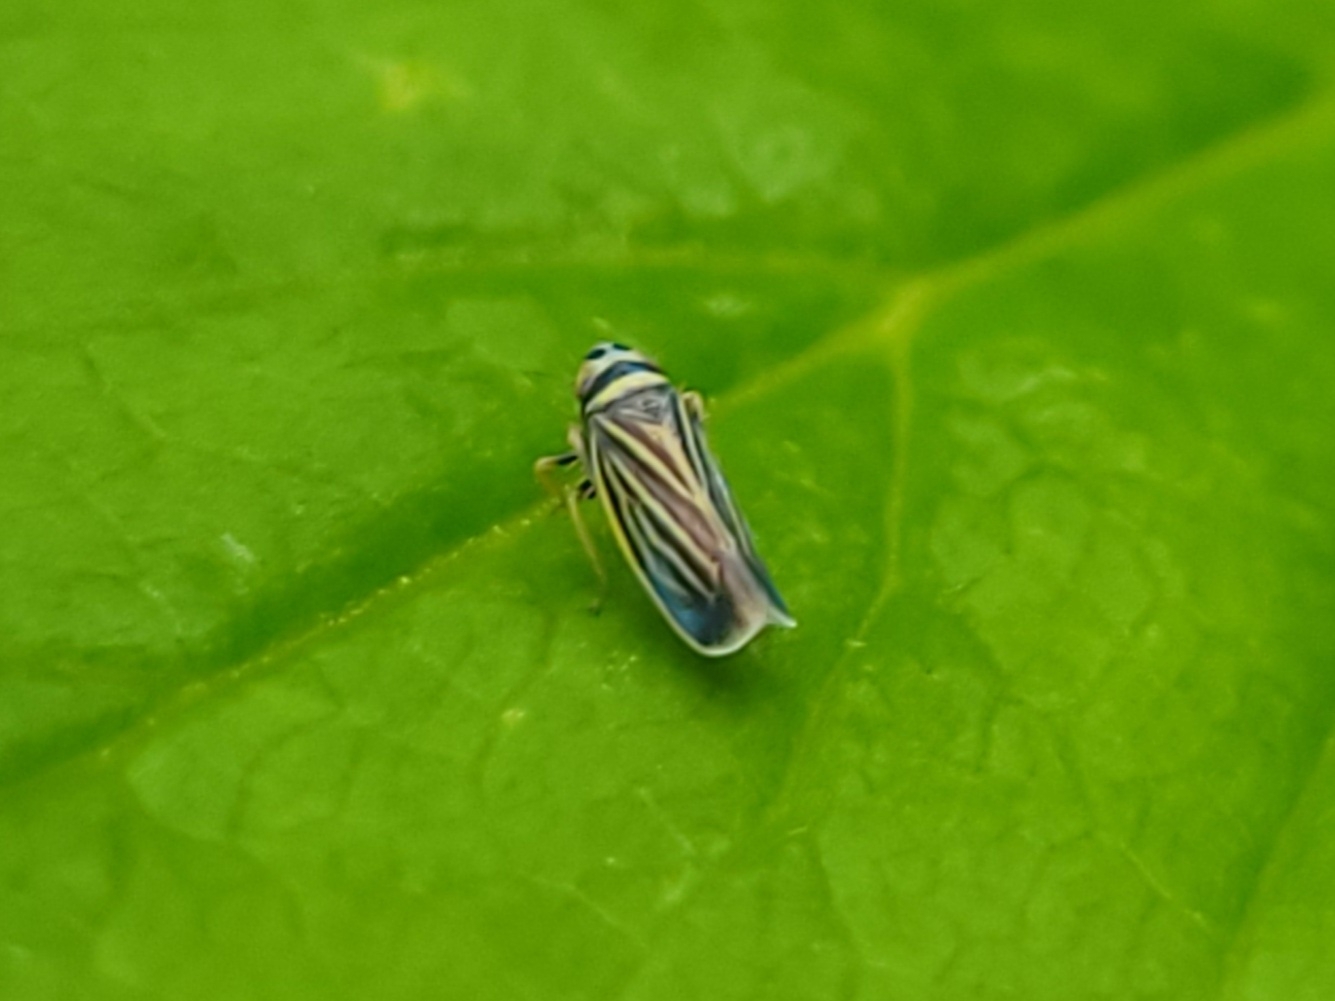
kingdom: Animalia
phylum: Arthropoda
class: Insecta
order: Hemiptera
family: Cicadellidae
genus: Amblysellus
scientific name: Amblysellus curtisii
